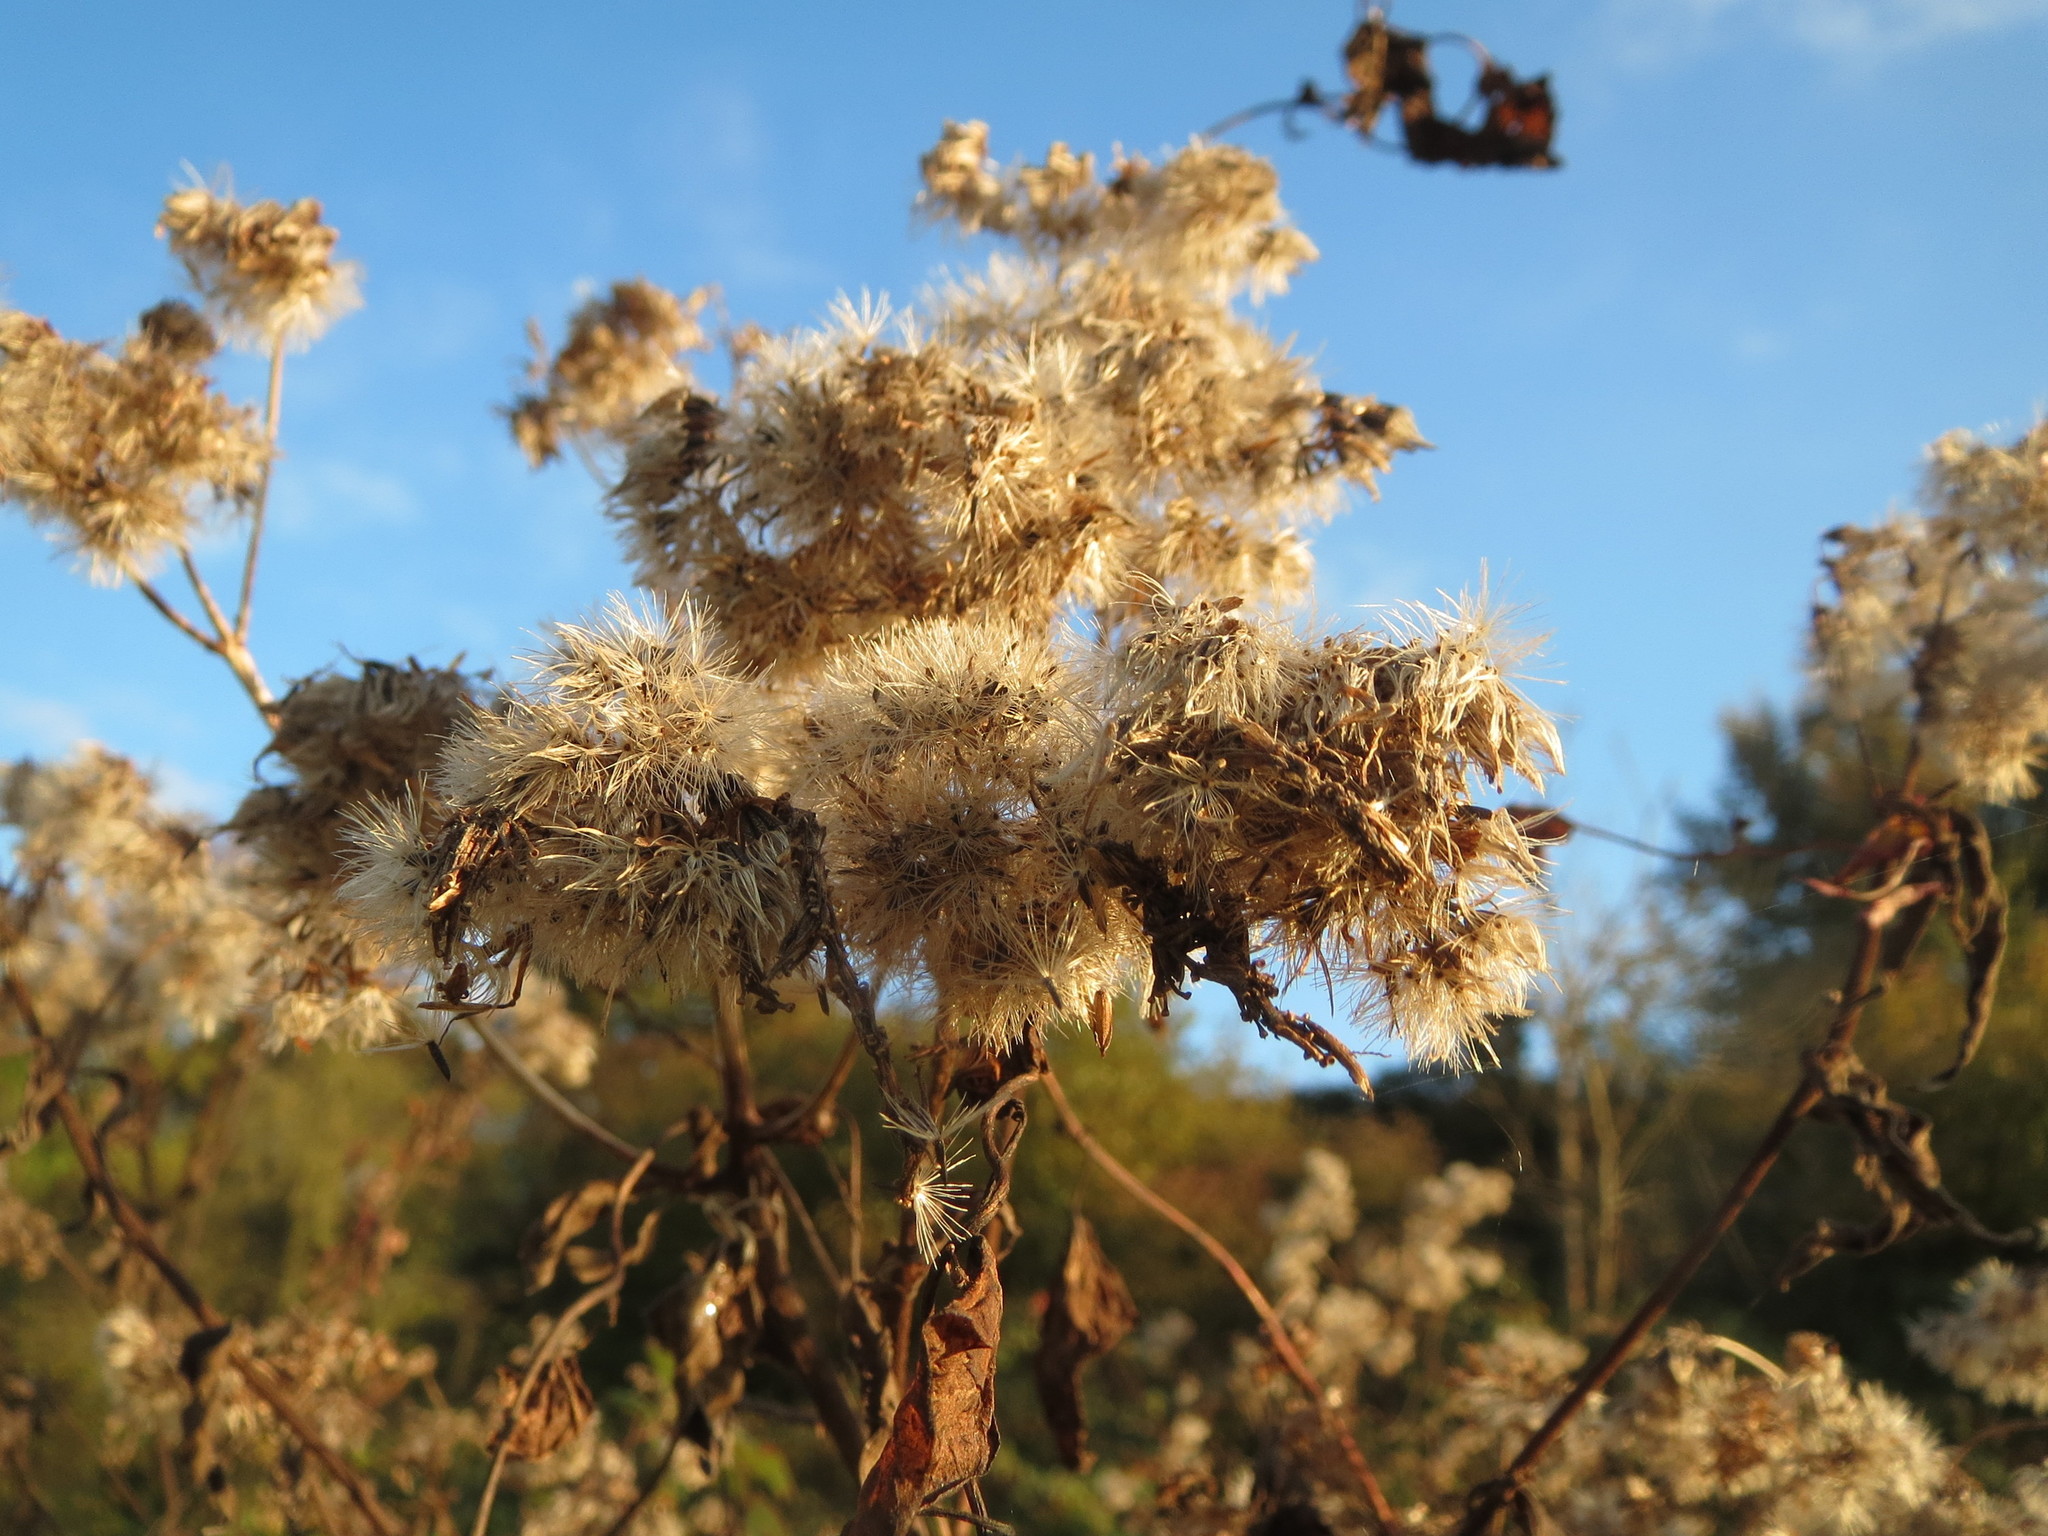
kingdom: Plantae
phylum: Tracheophyta
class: Magnoliopsida
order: Asterales
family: Asteraceae
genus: Eupatorium
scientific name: Eupatorium cannabinum
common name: Hemp-agrimony
